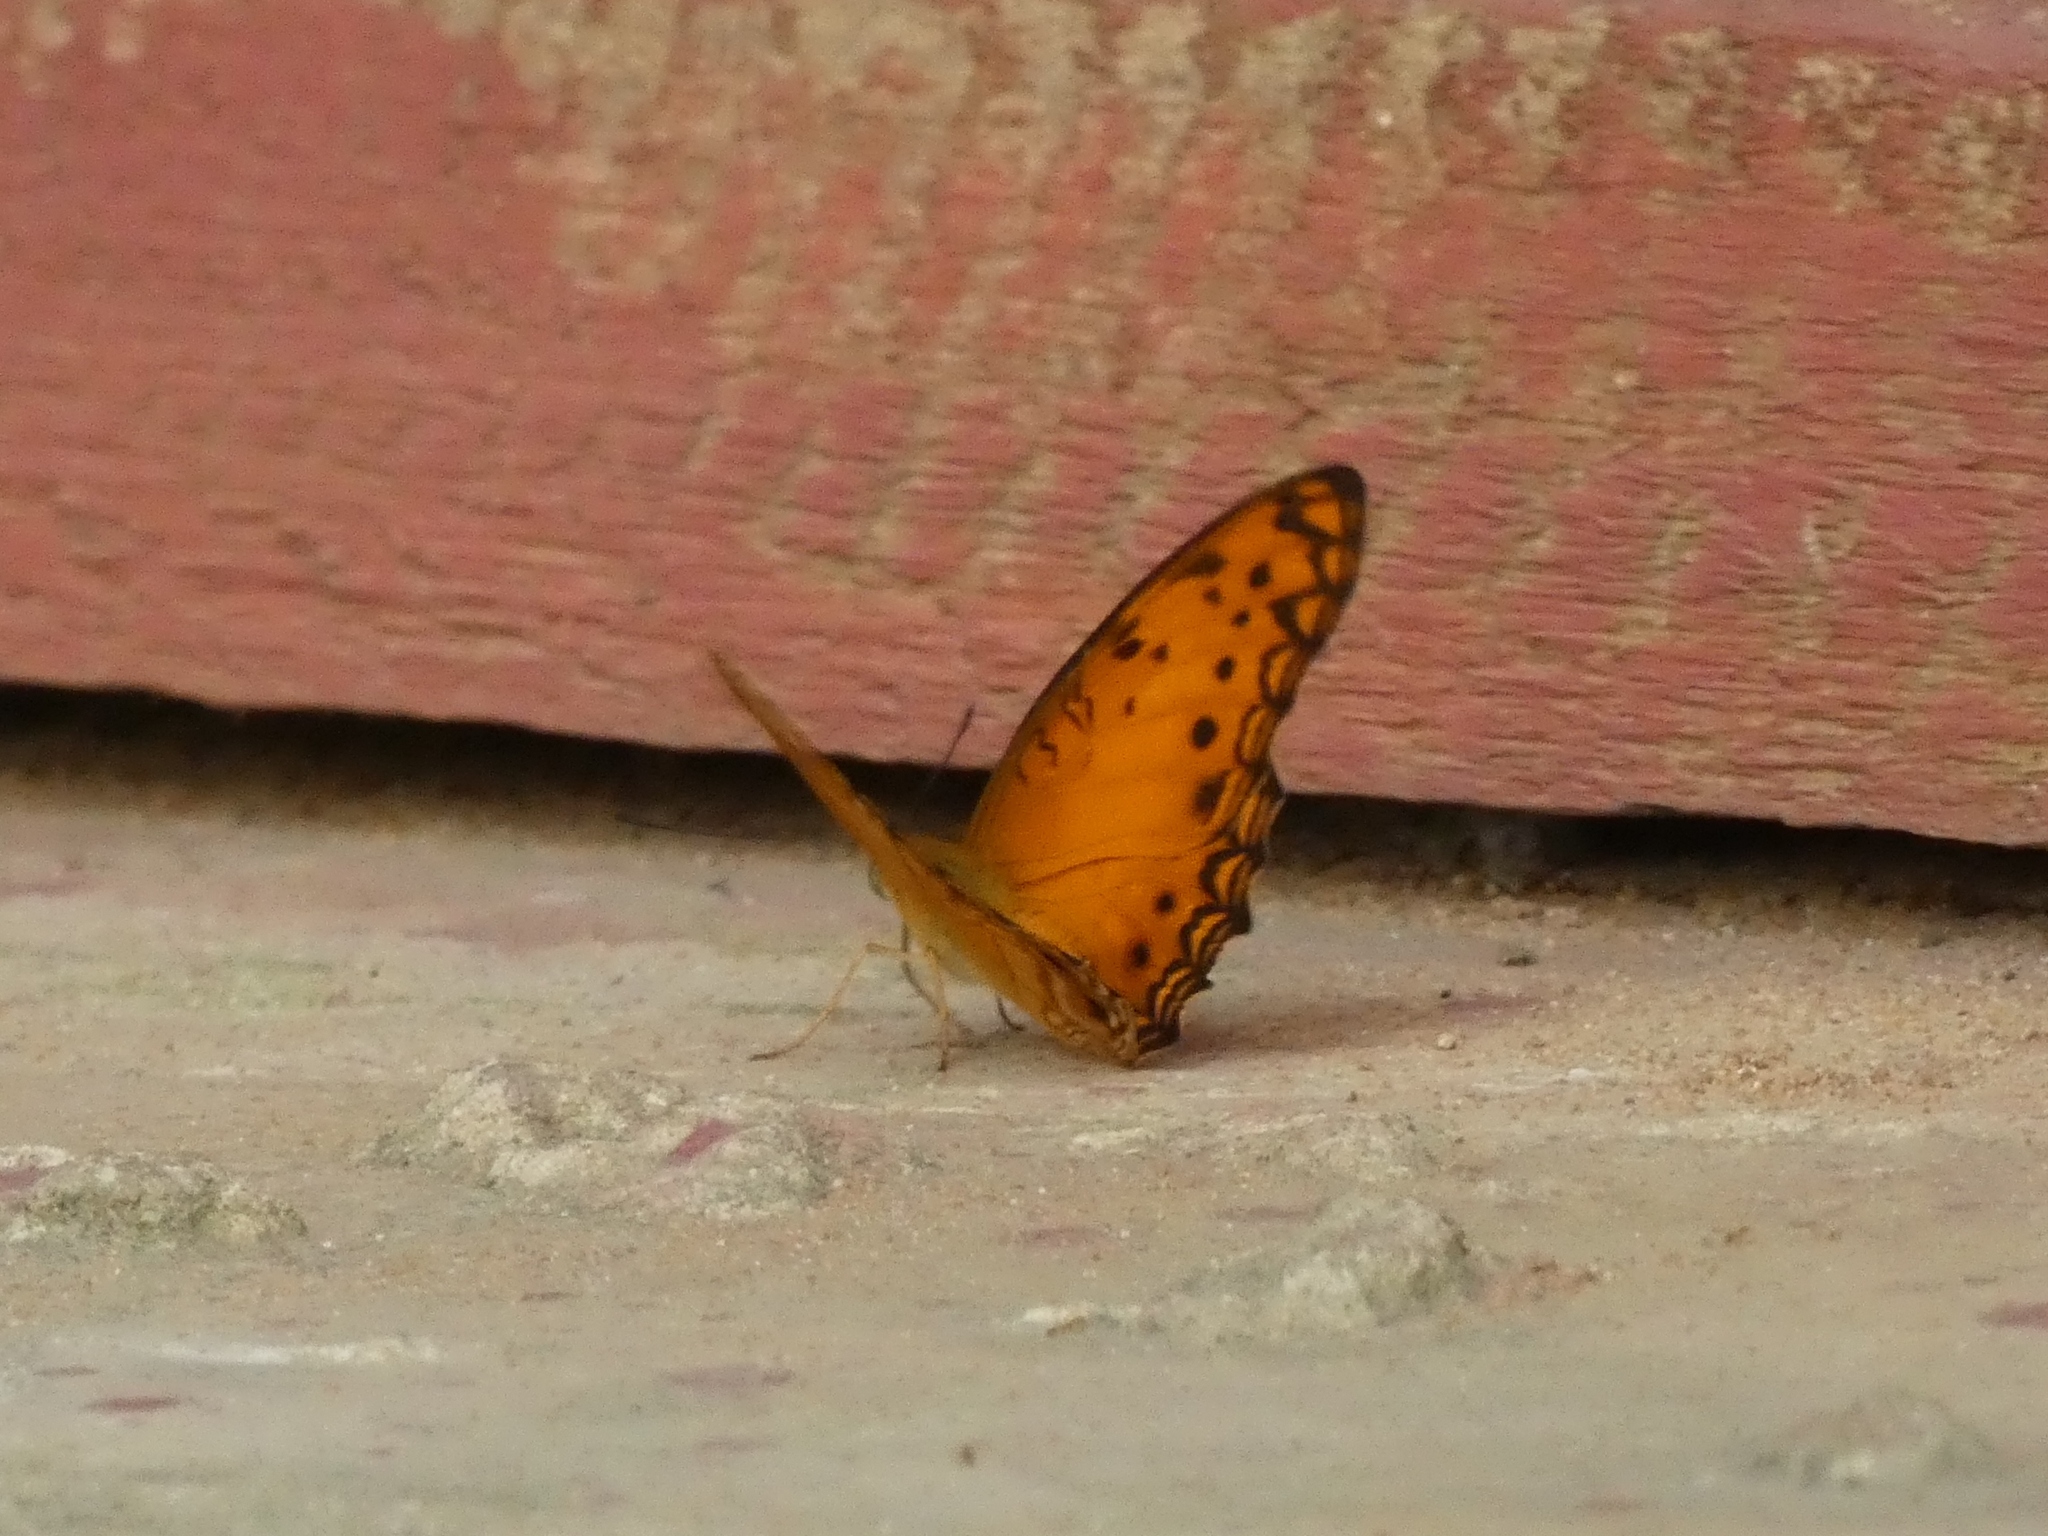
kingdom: Animalia
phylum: Arthropoda
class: Insecta
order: Lepidoptera
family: Nymphalidae
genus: Phalanta
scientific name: Phalanta columbina
